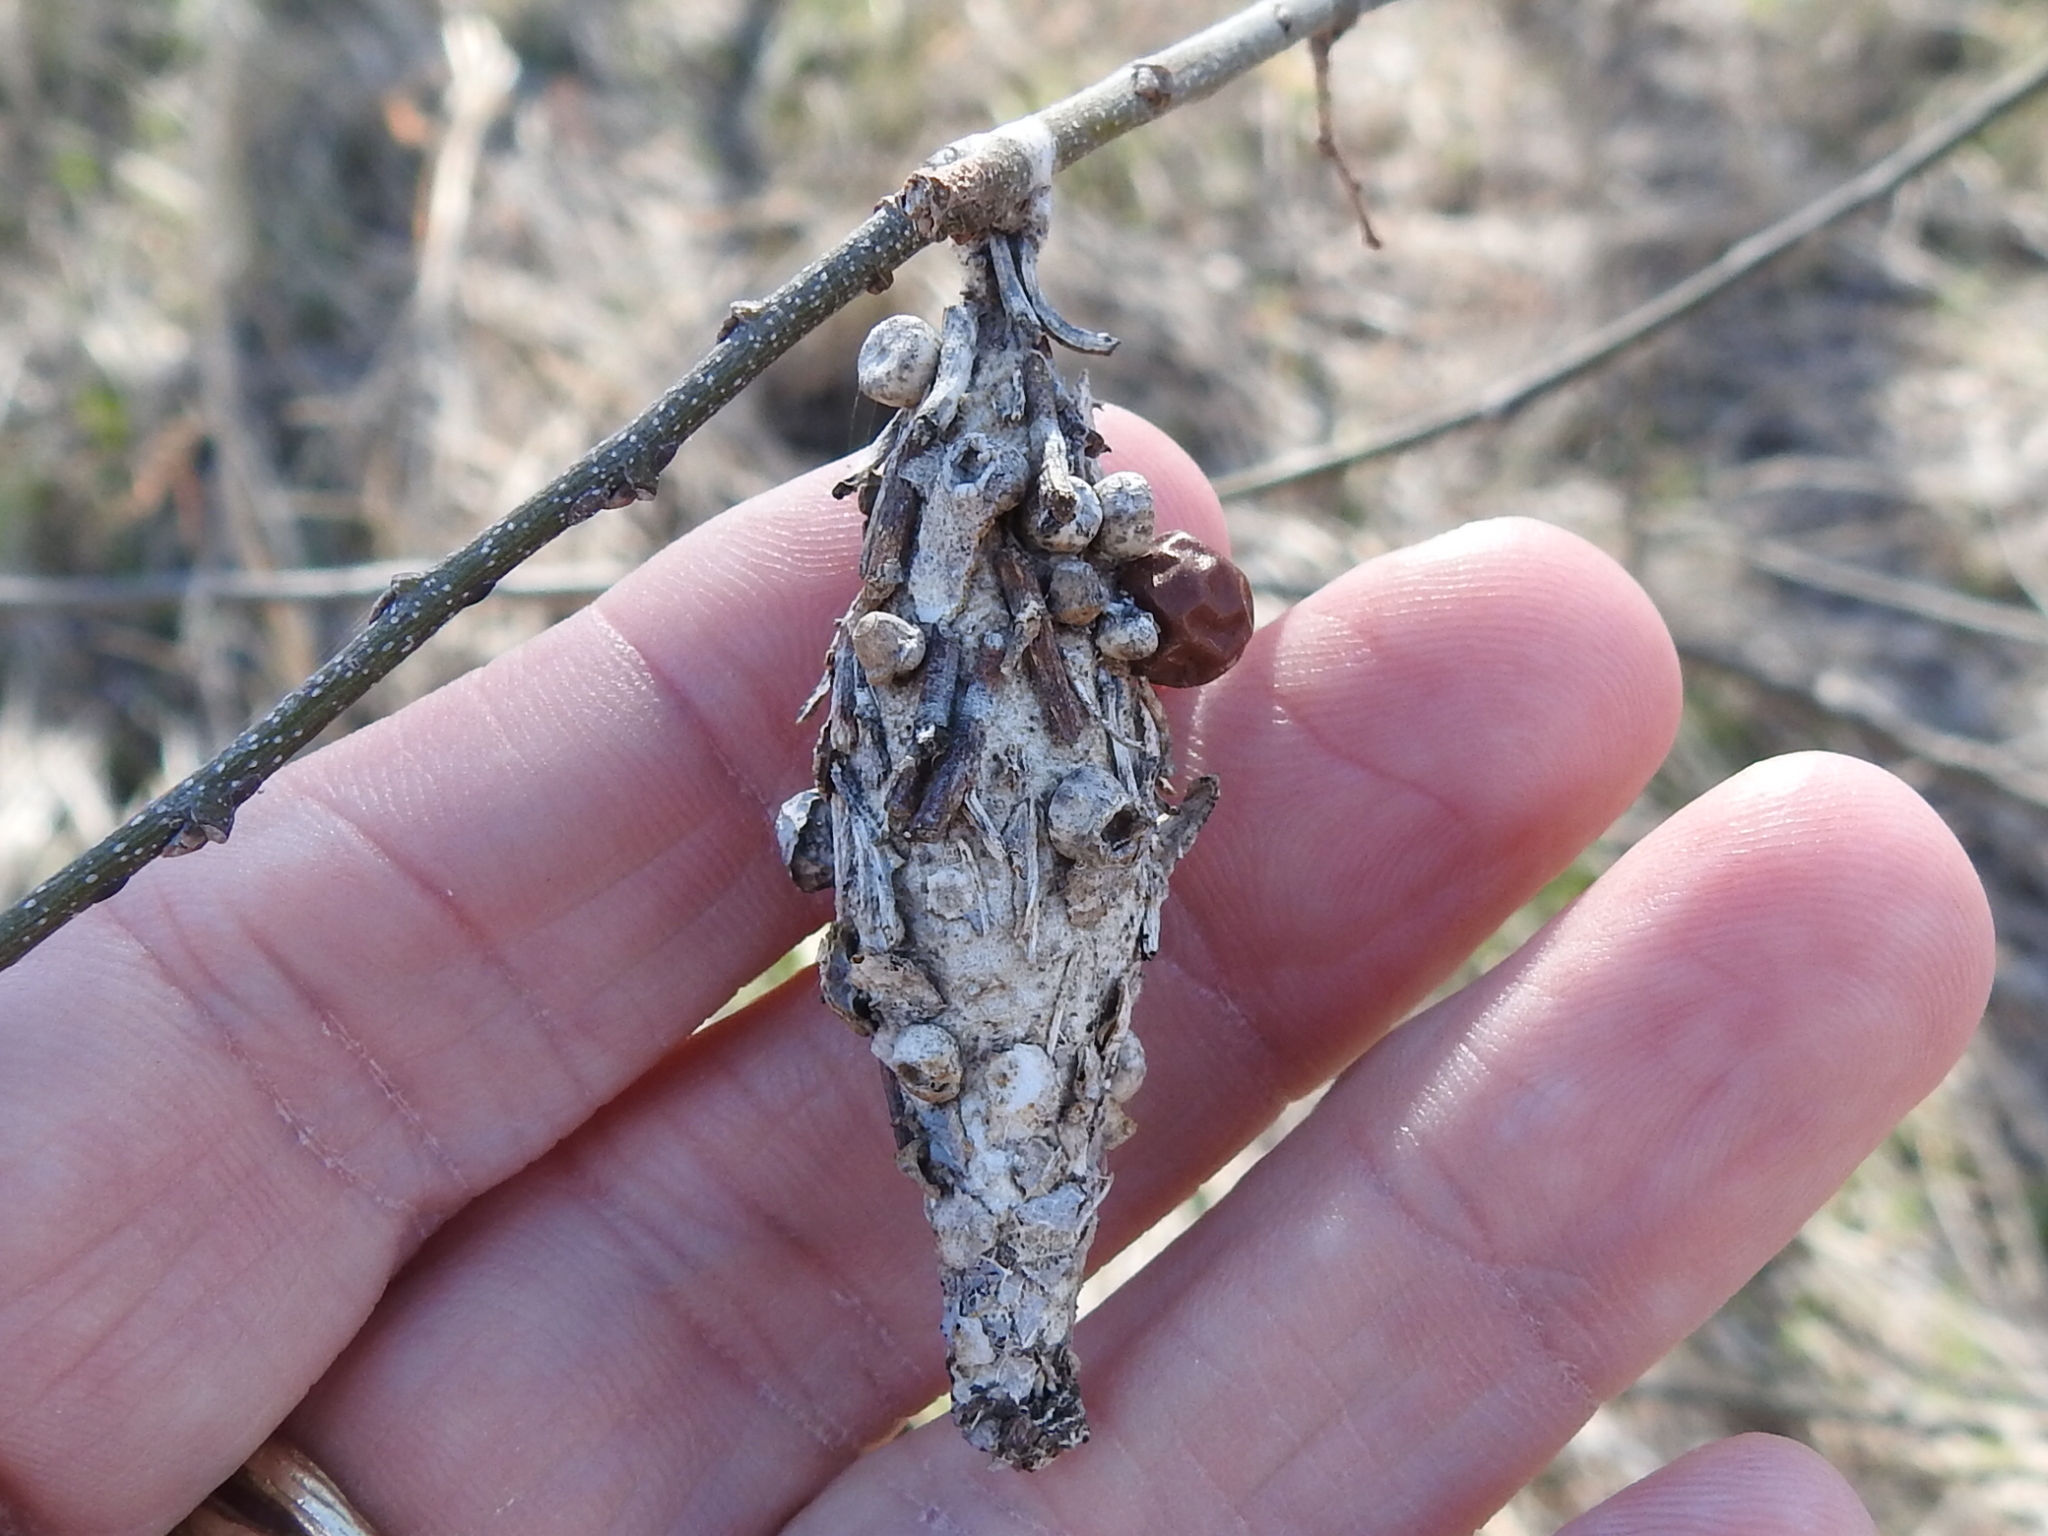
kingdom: Animalia
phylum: Arthropoda
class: Insecta
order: Lepidoptera
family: Psychidae
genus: Thyridopteryx
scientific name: Thyridopteryx ephemeraeformis
